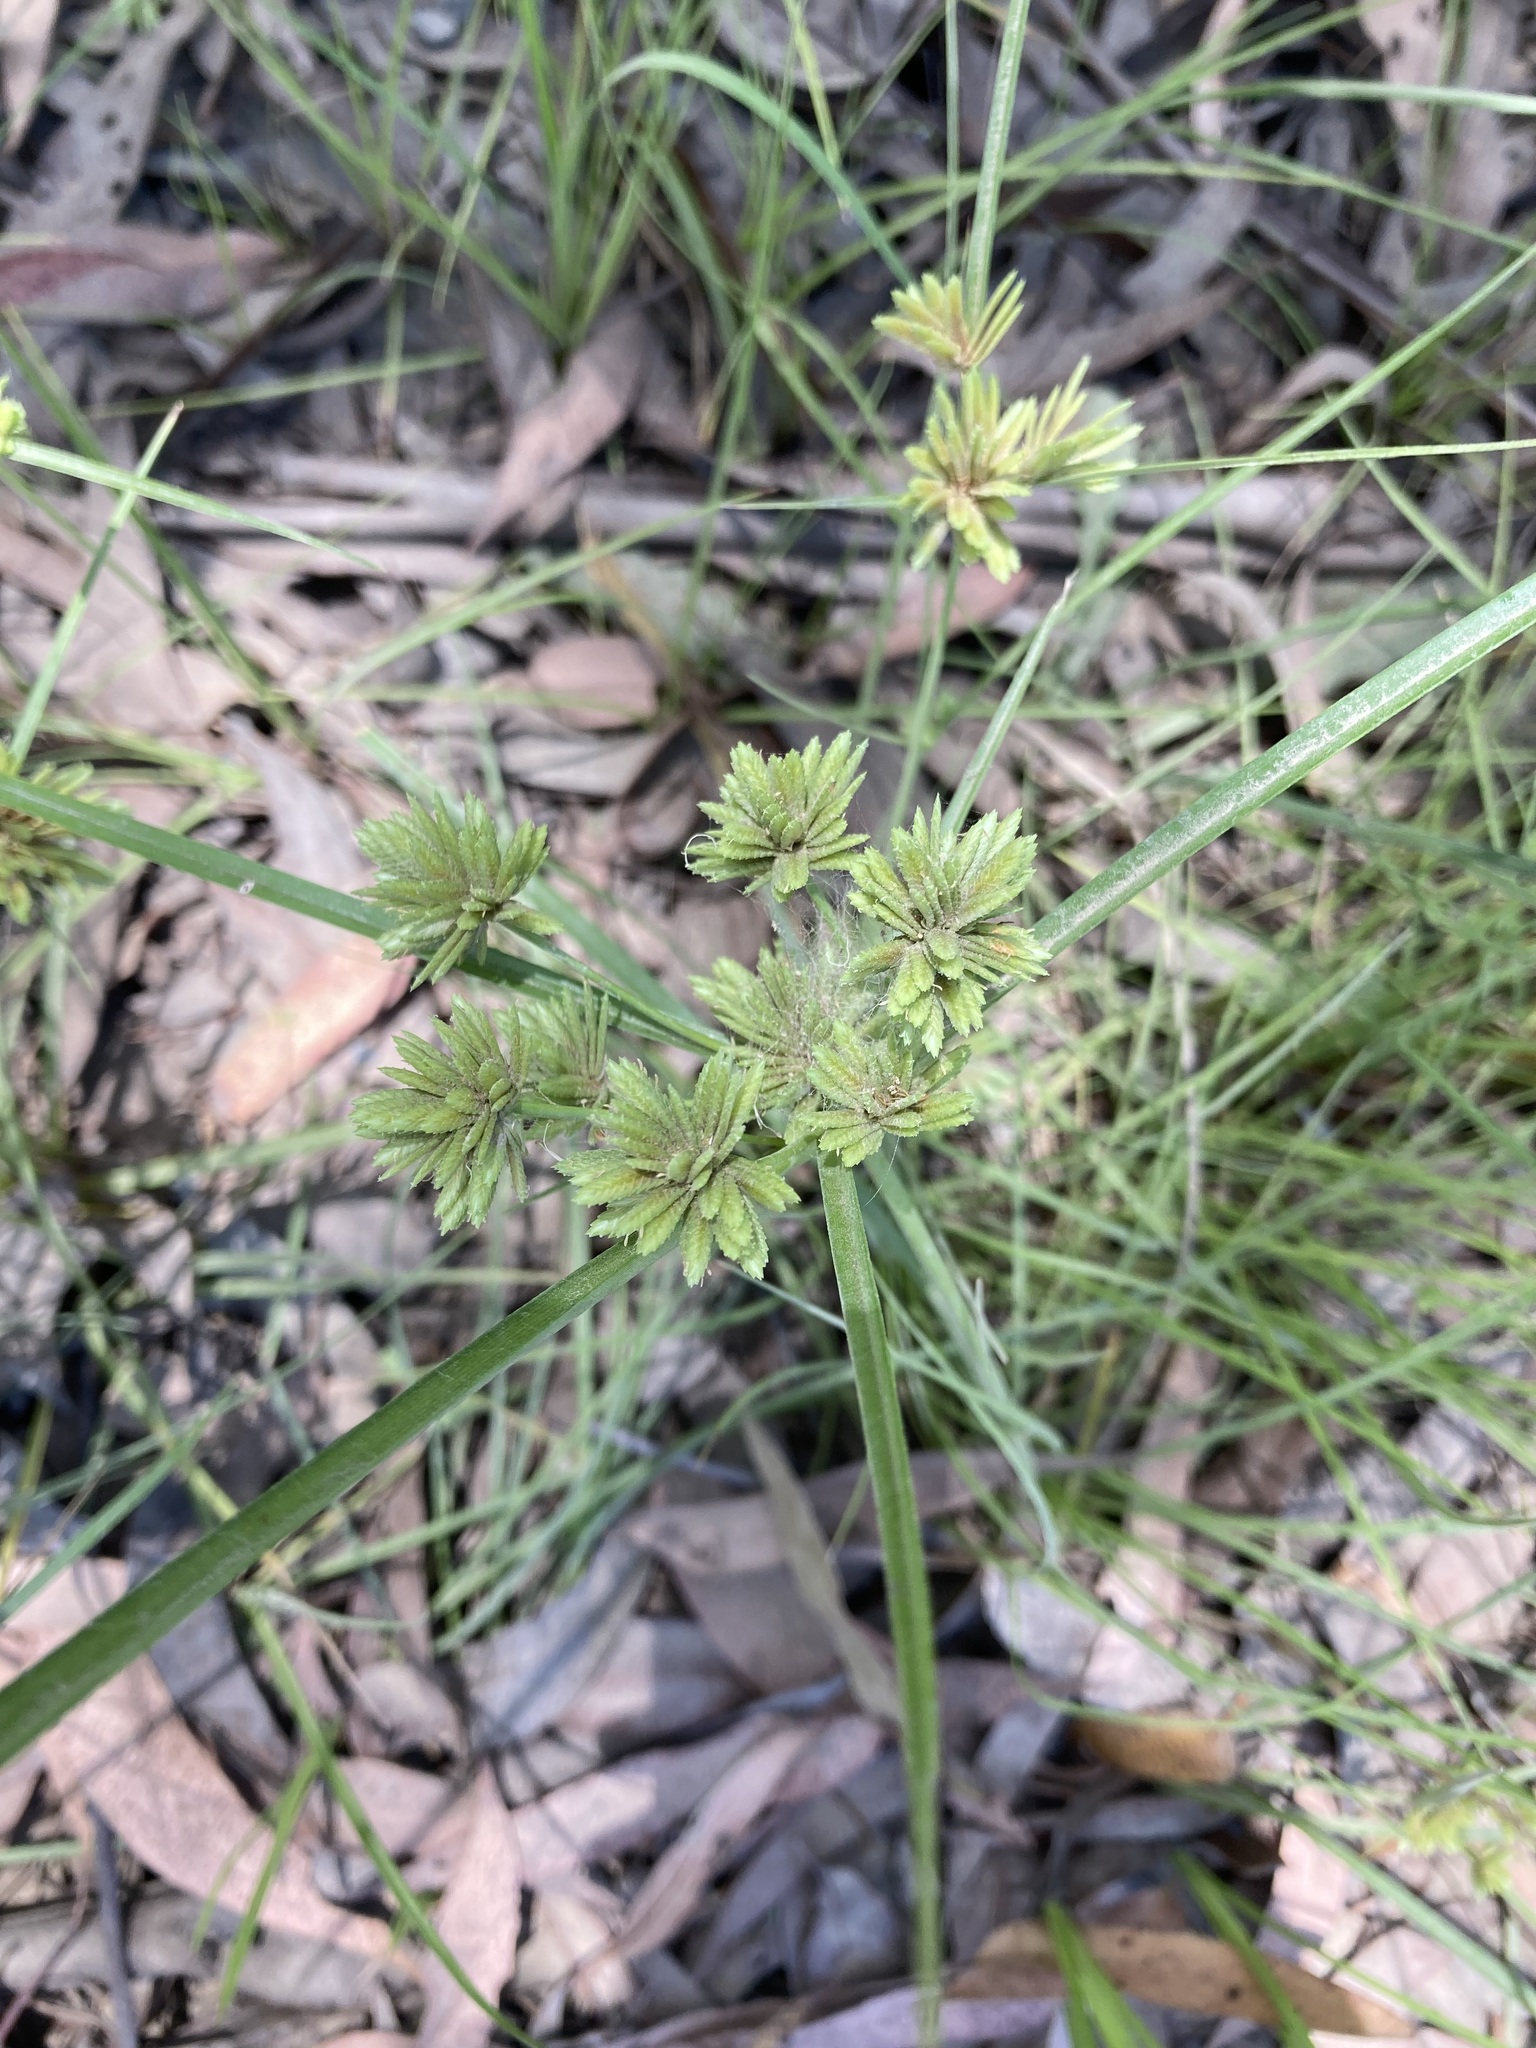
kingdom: Plantae
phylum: Tracheophyta
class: Liliopsida
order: Poales
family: Cyperaceae
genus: Cyperus
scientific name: Cyperus eragrostis
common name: Tall flatsedge
